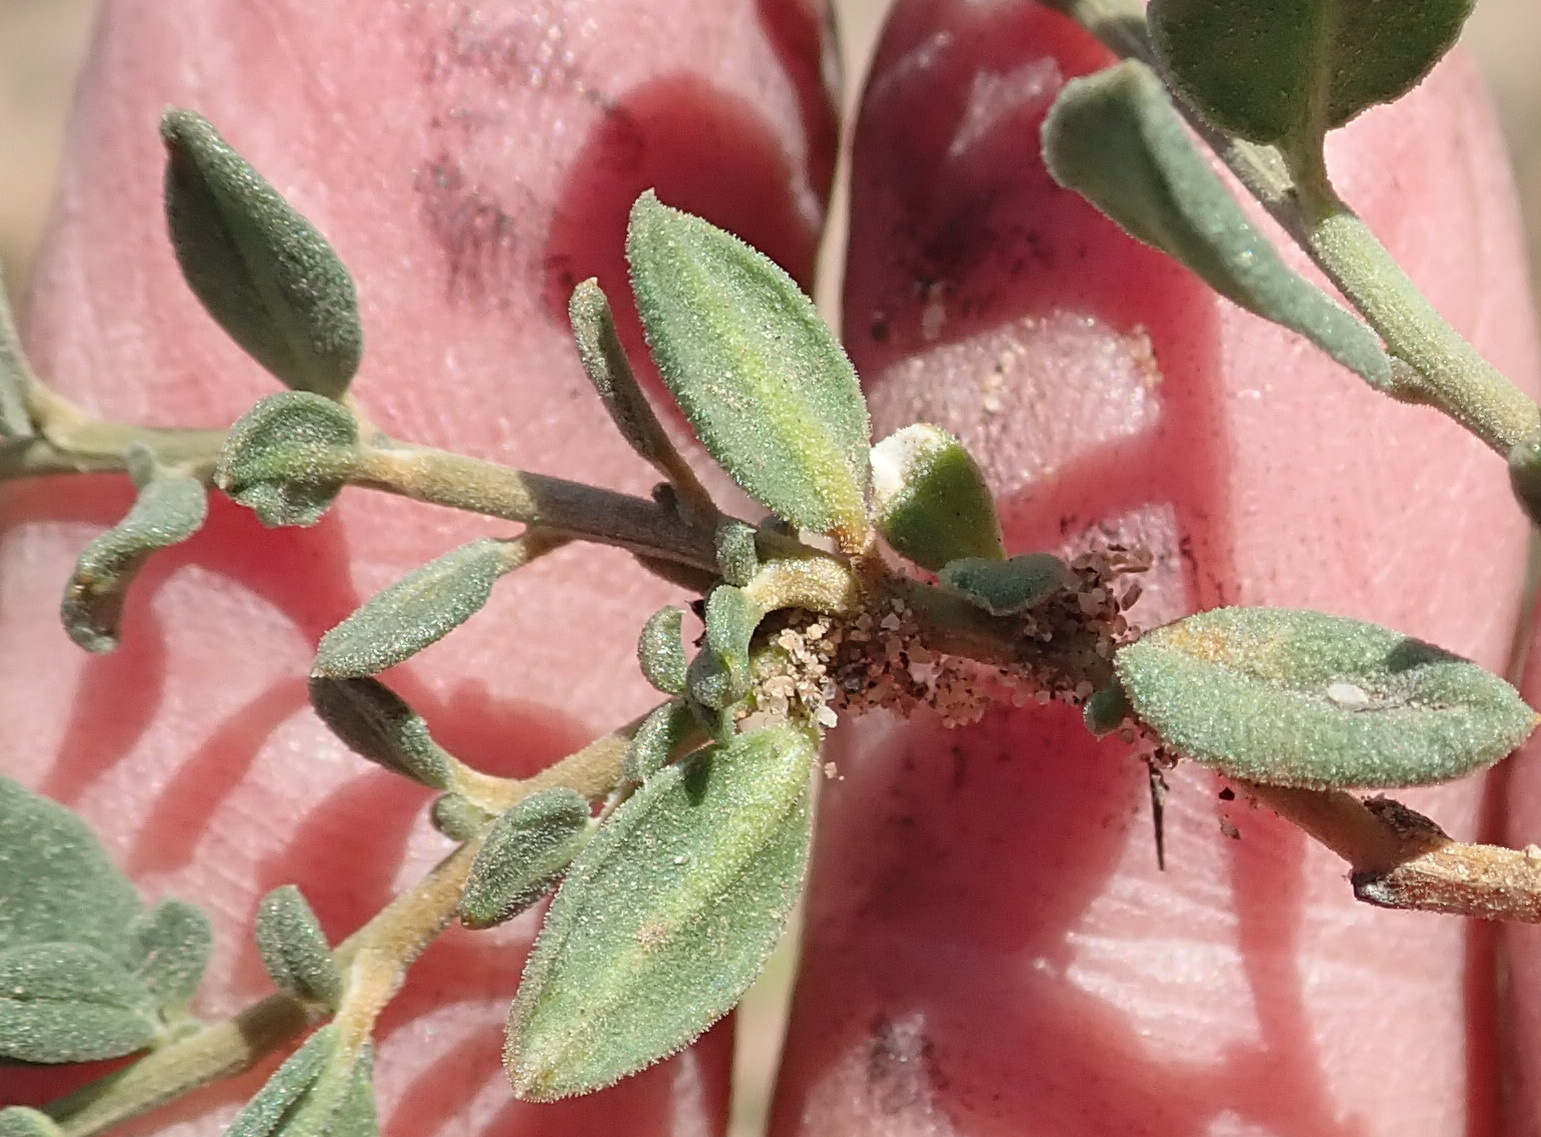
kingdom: Plantae
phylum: Tracheophyta
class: Magnoliopsida
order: Caryophyllales
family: Limeaceae
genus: Limeum
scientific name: Limeum telephioides
